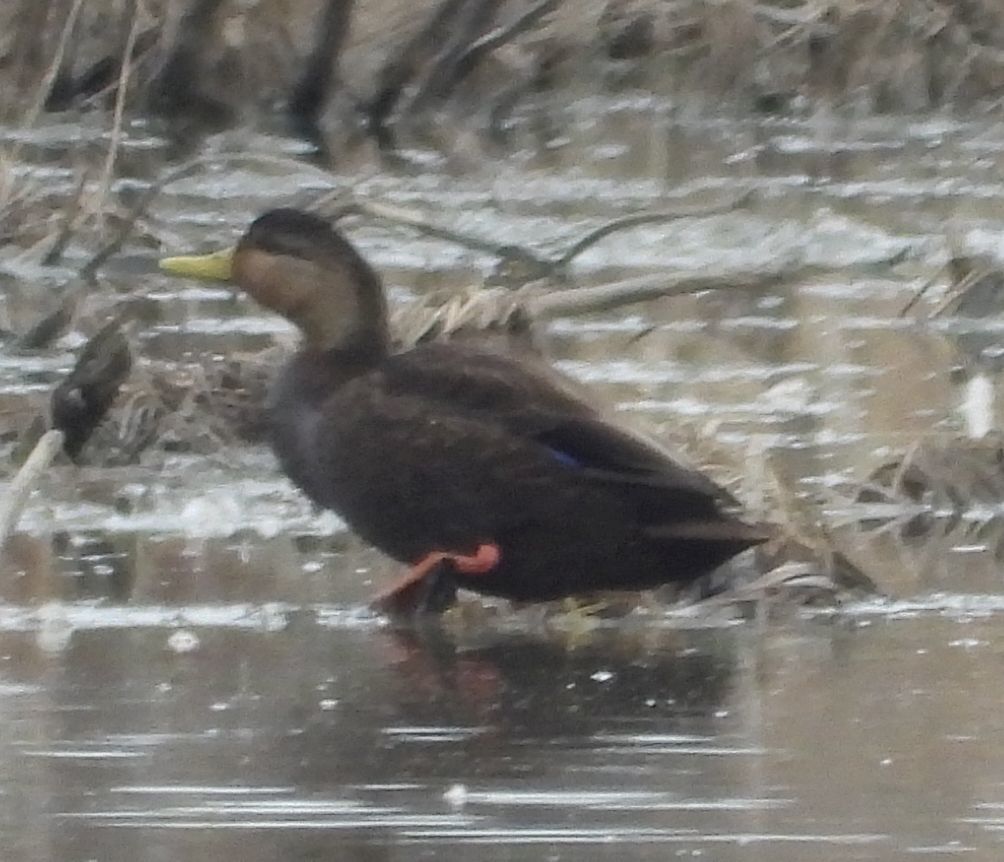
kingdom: Animalia
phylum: Chordata
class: Aves
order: Anseriformes
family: Anatidae
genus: Anas
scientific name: Anas rubripes
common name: American black duck
